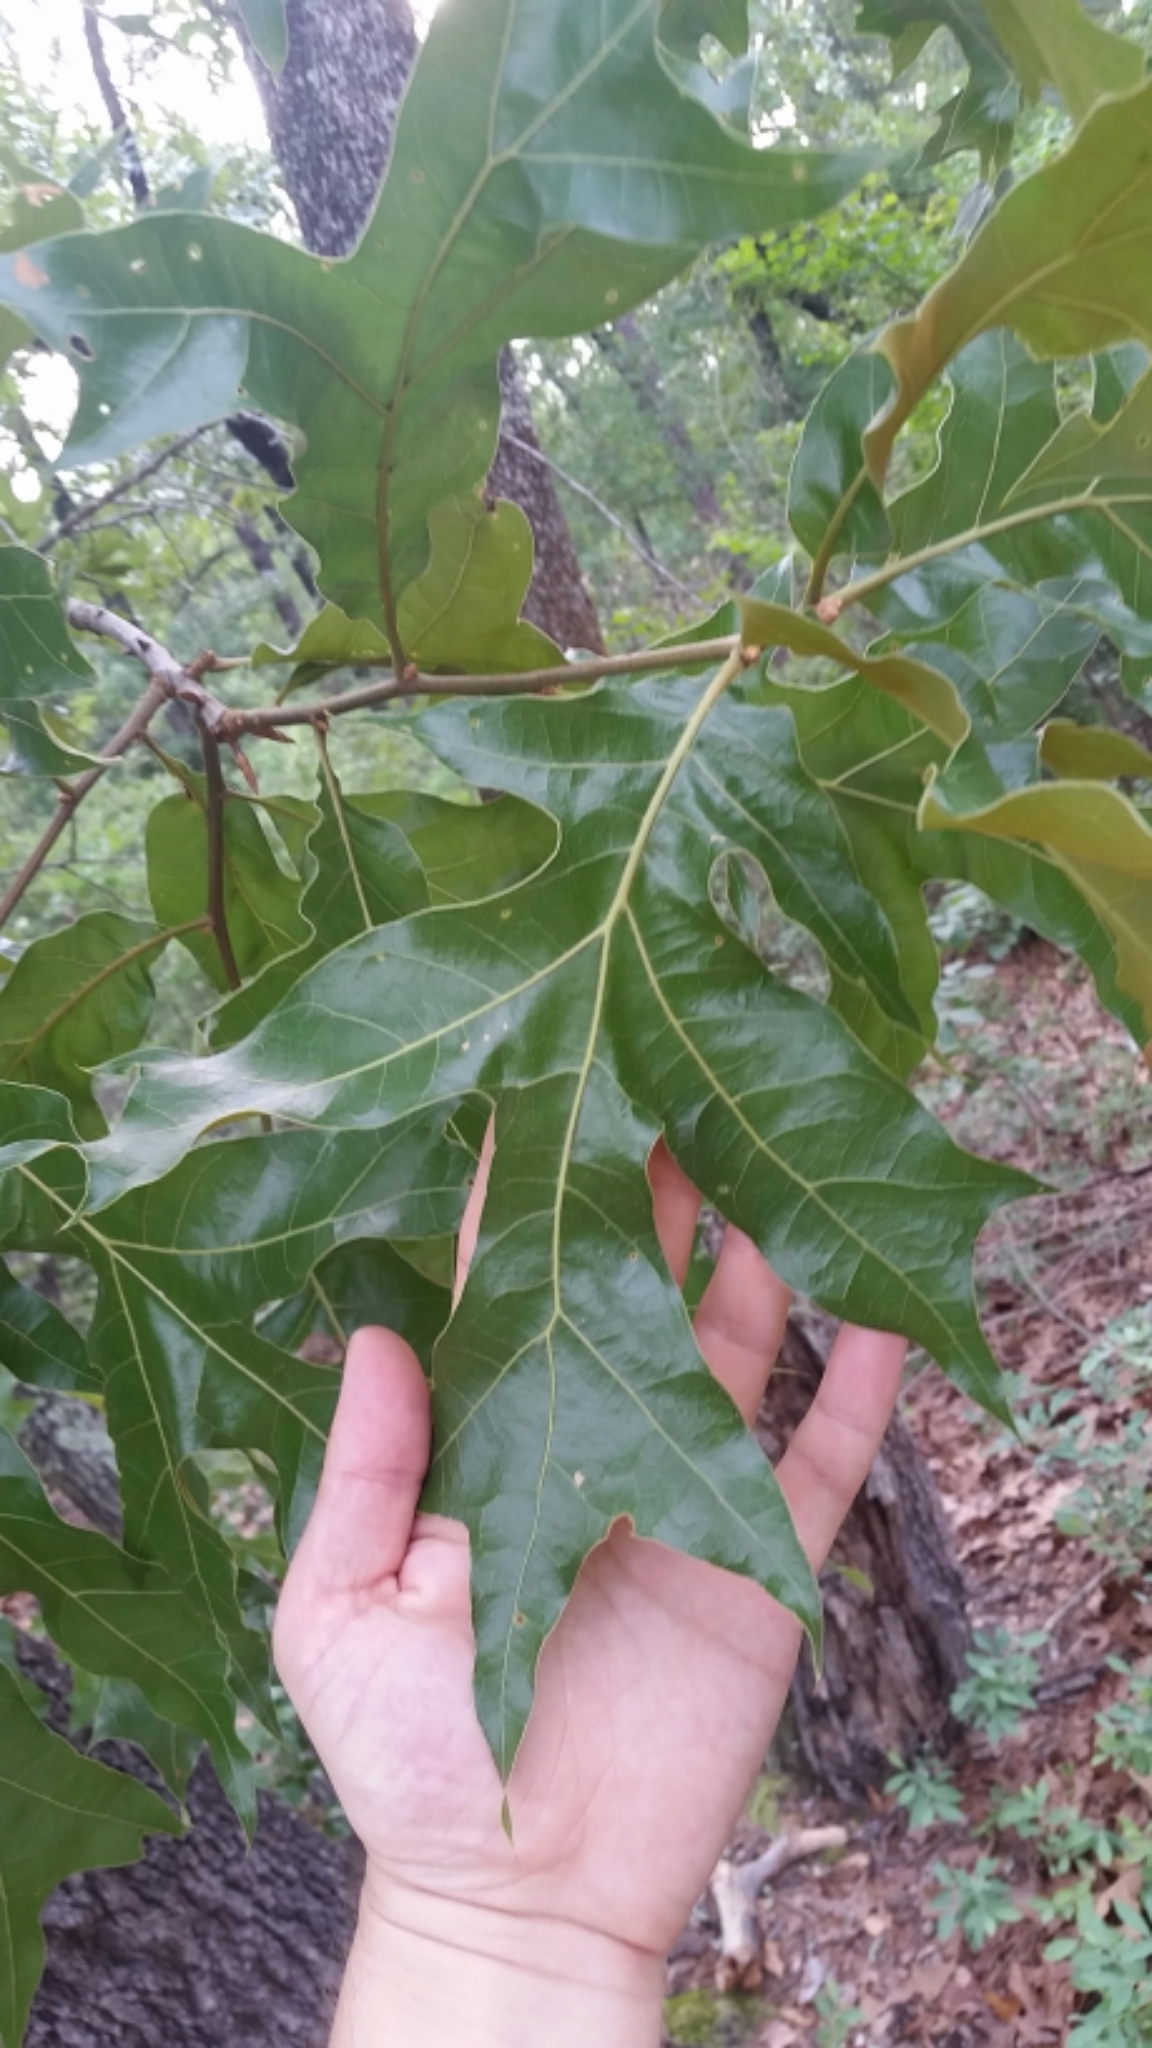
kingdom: Plantae
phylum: Tracheophyta
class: Magnoliopsida
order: Fagales
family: Fagaceae
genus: Quercus
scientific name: Quercus laevis
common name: Turkey oak
